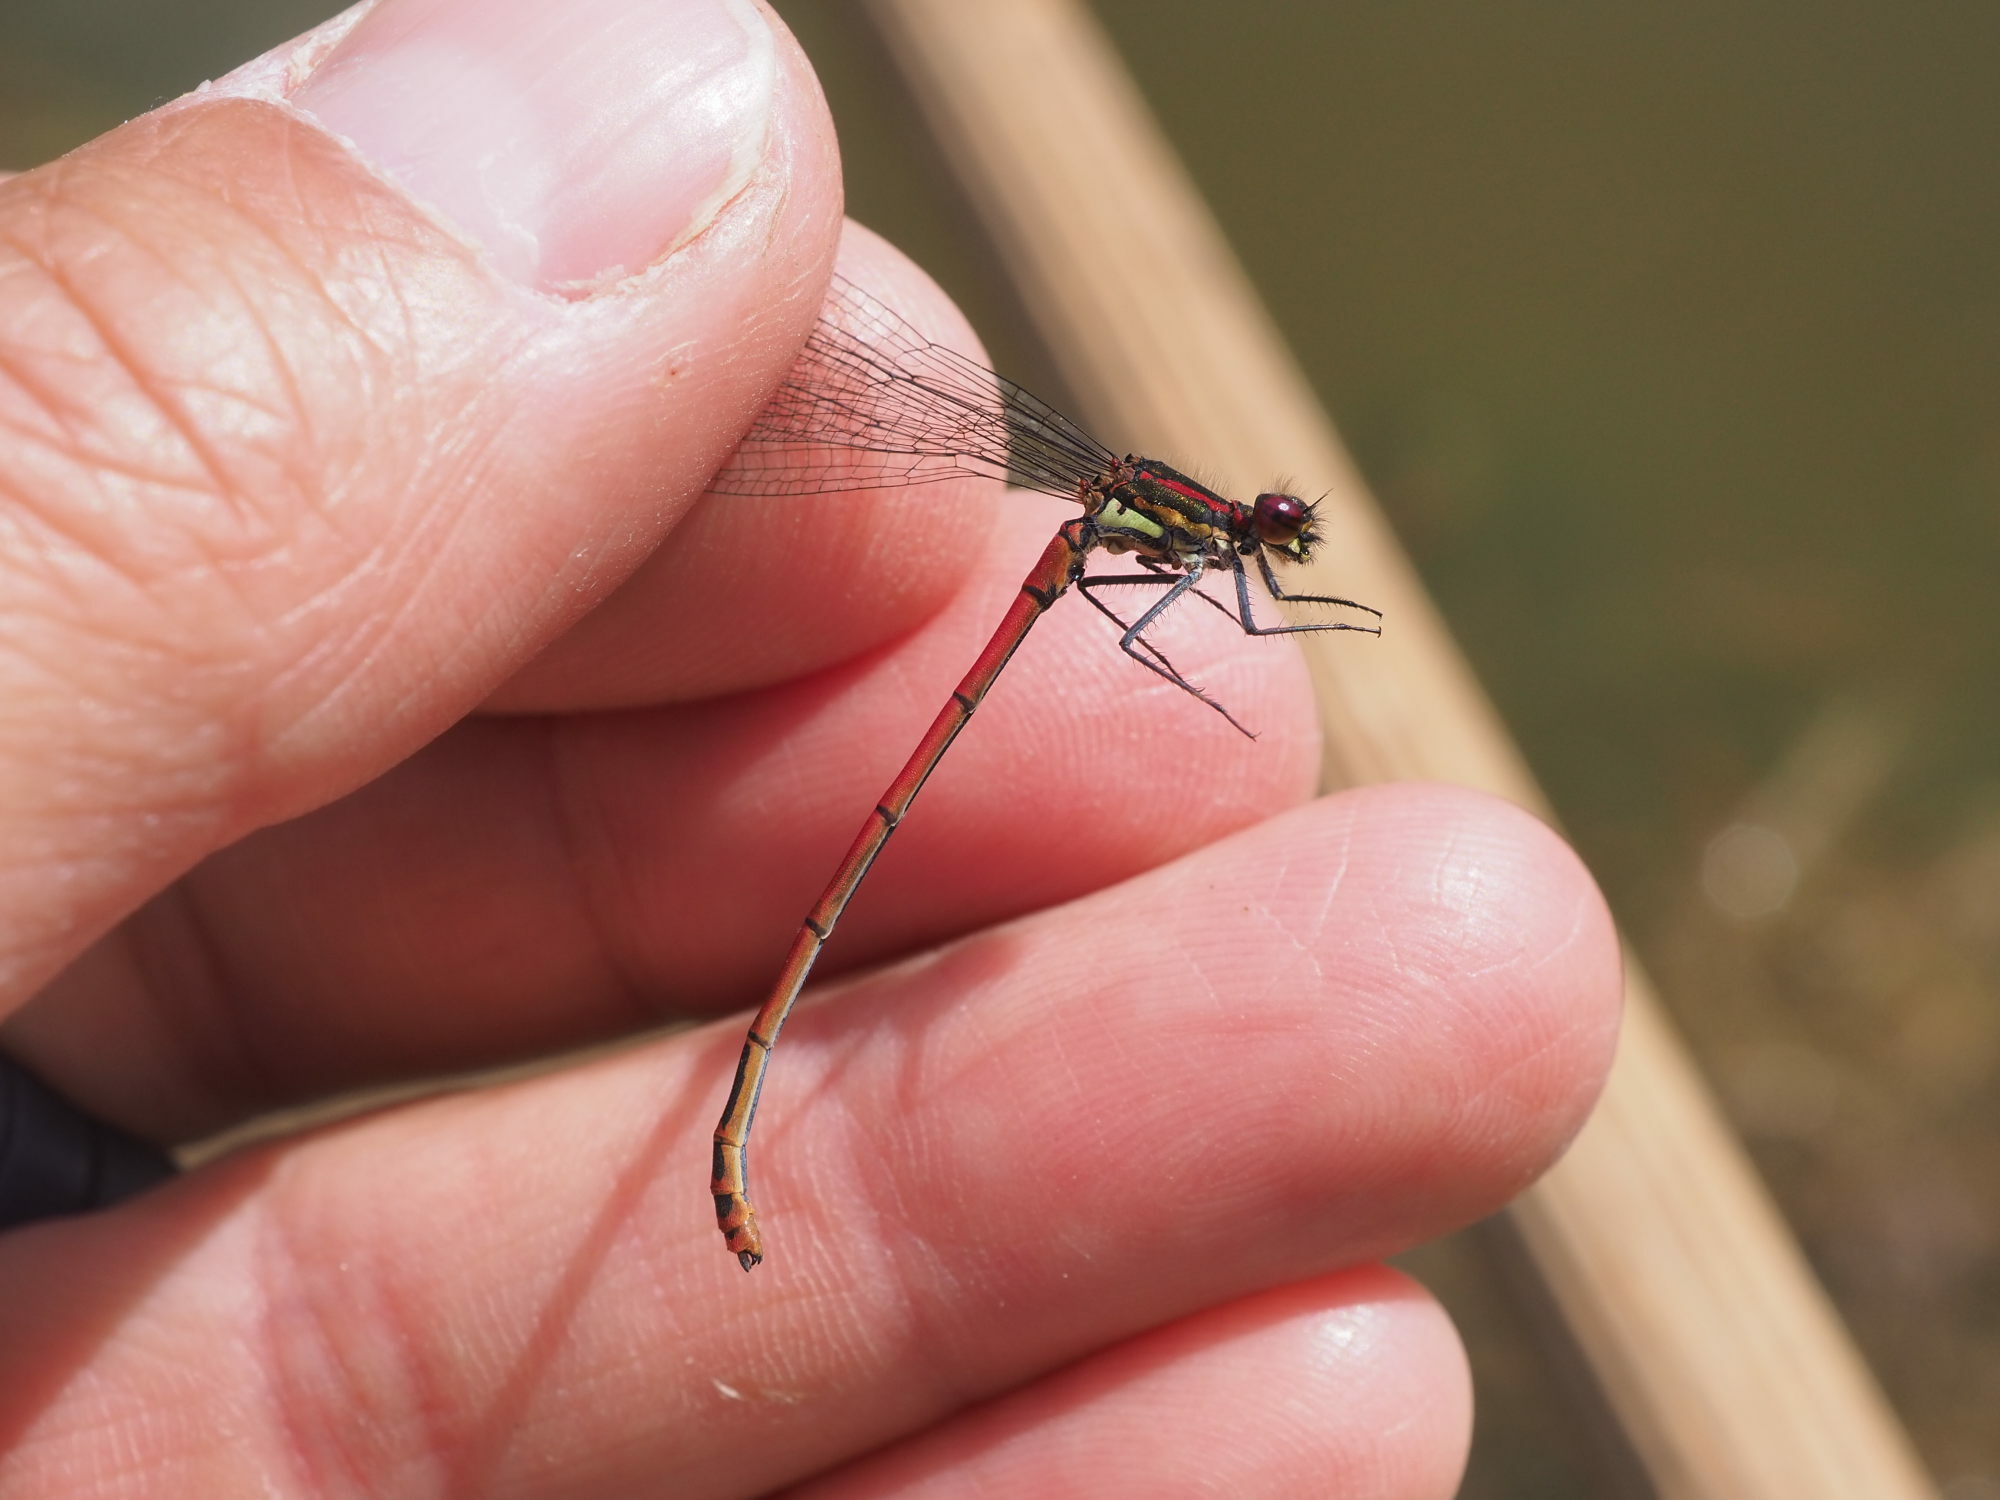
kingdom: Animalia
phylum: Arthropoda
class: Insecta
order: Odonata
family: Coenagrionidae
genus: Pyrrhosoma
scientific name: Pyrrhosoma nymphula
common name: Large red damsel
